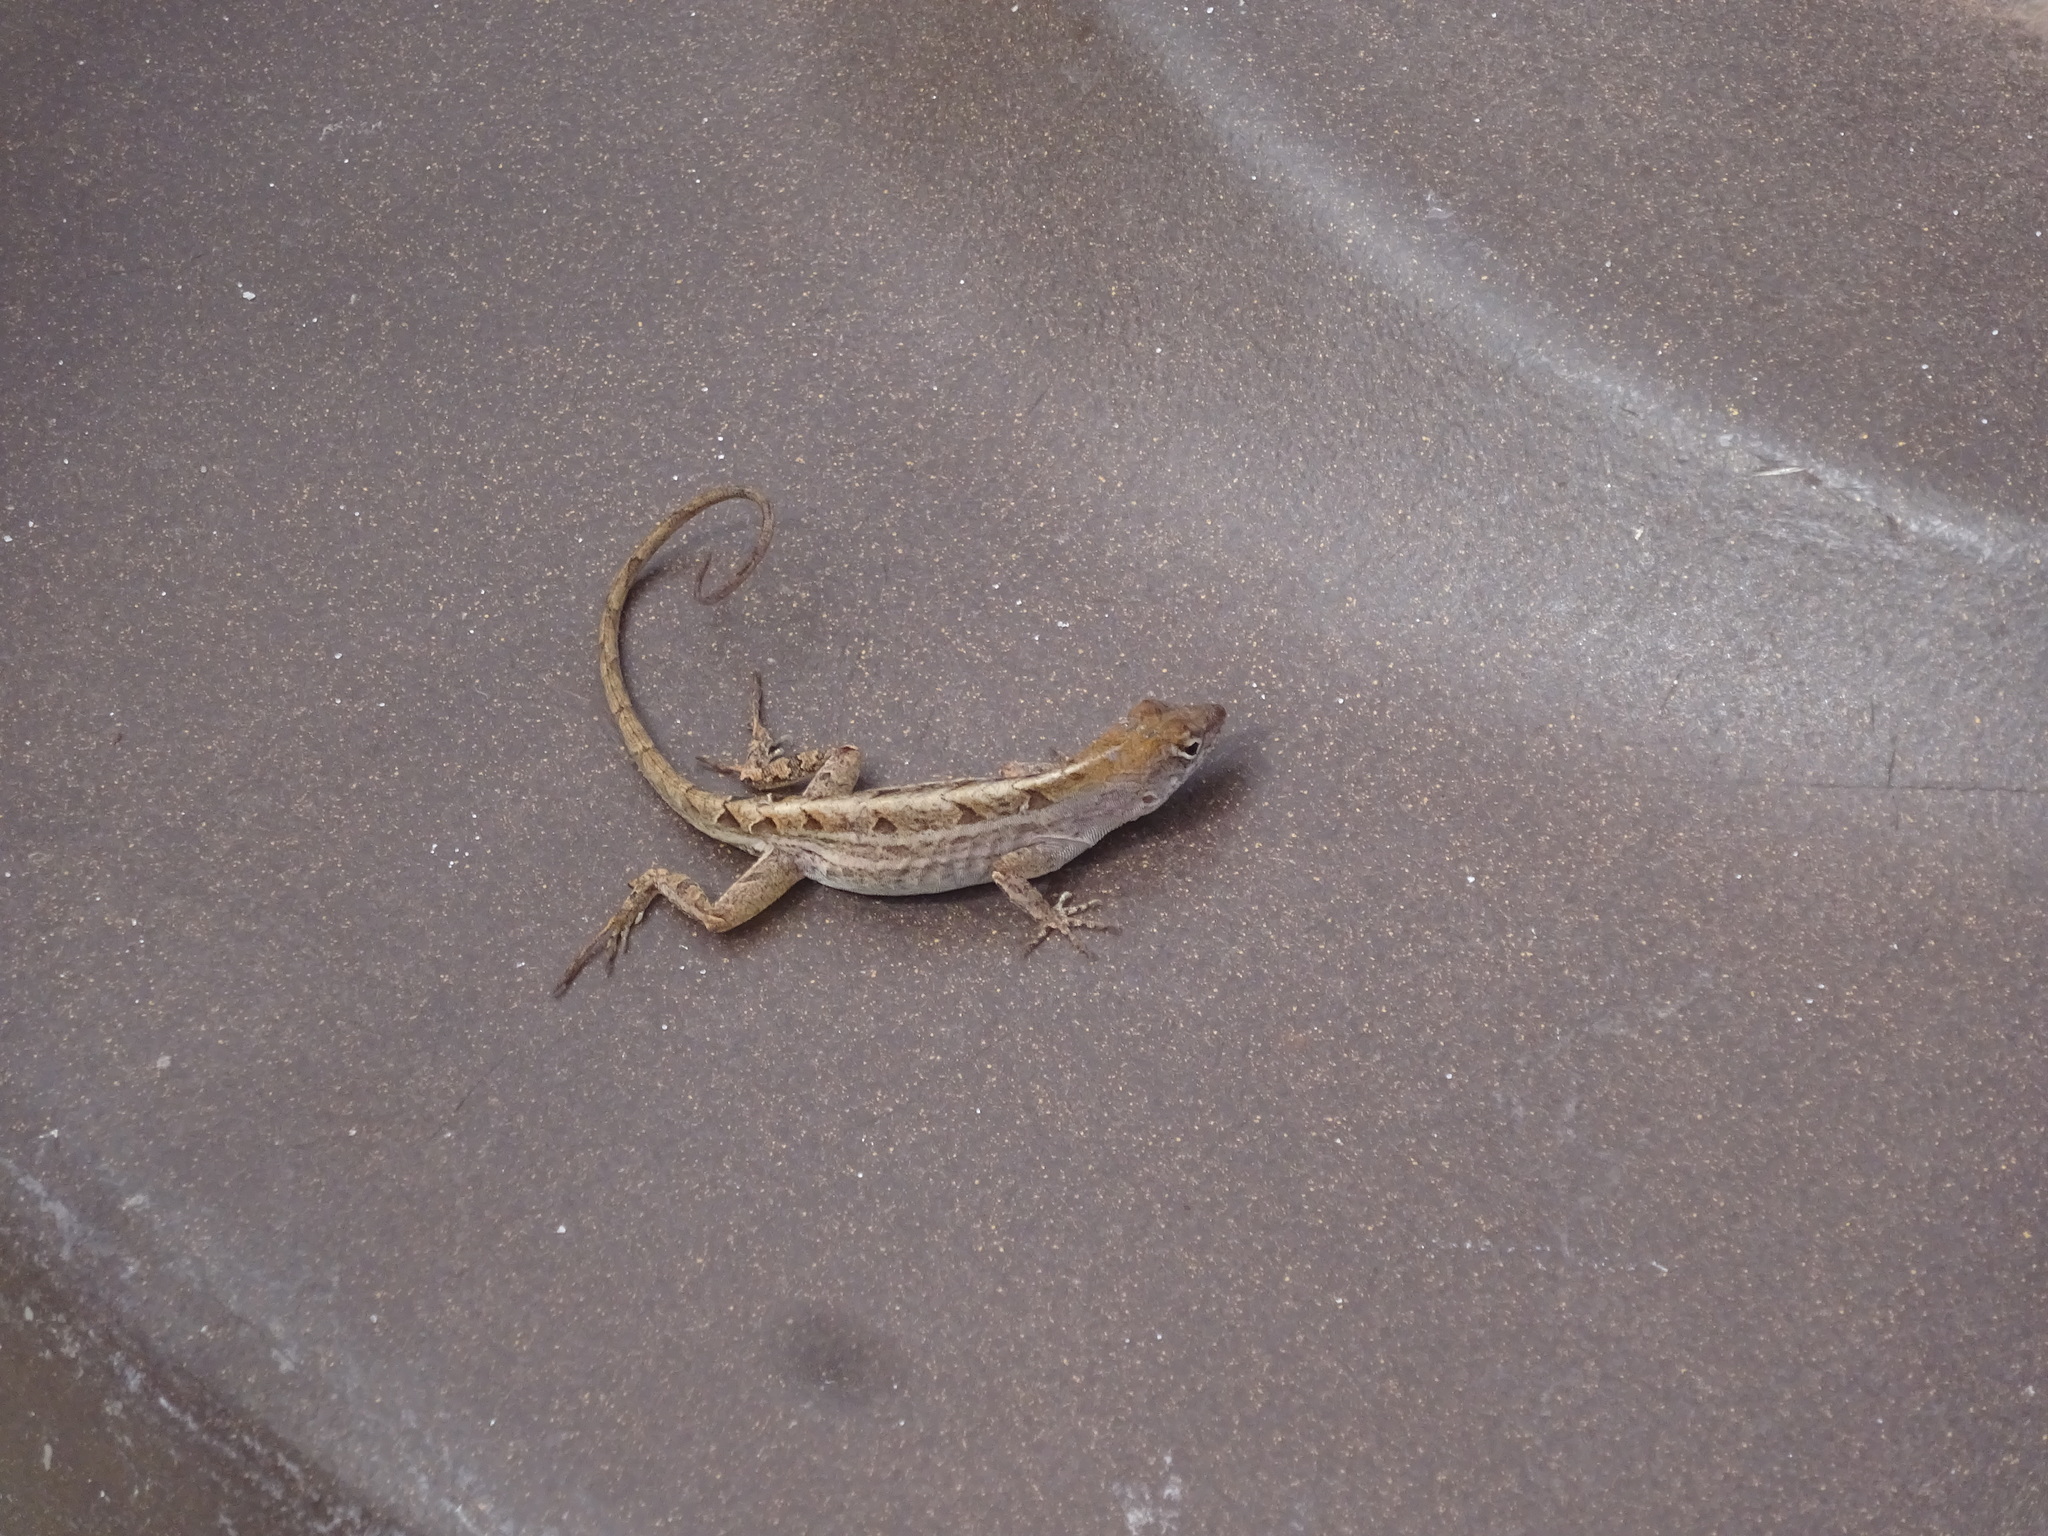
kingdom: Animalia
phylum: Chordata
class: Squamata
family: Dactyloidae
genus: Anolis
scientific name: Anolis sagrei
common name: Brown anole
